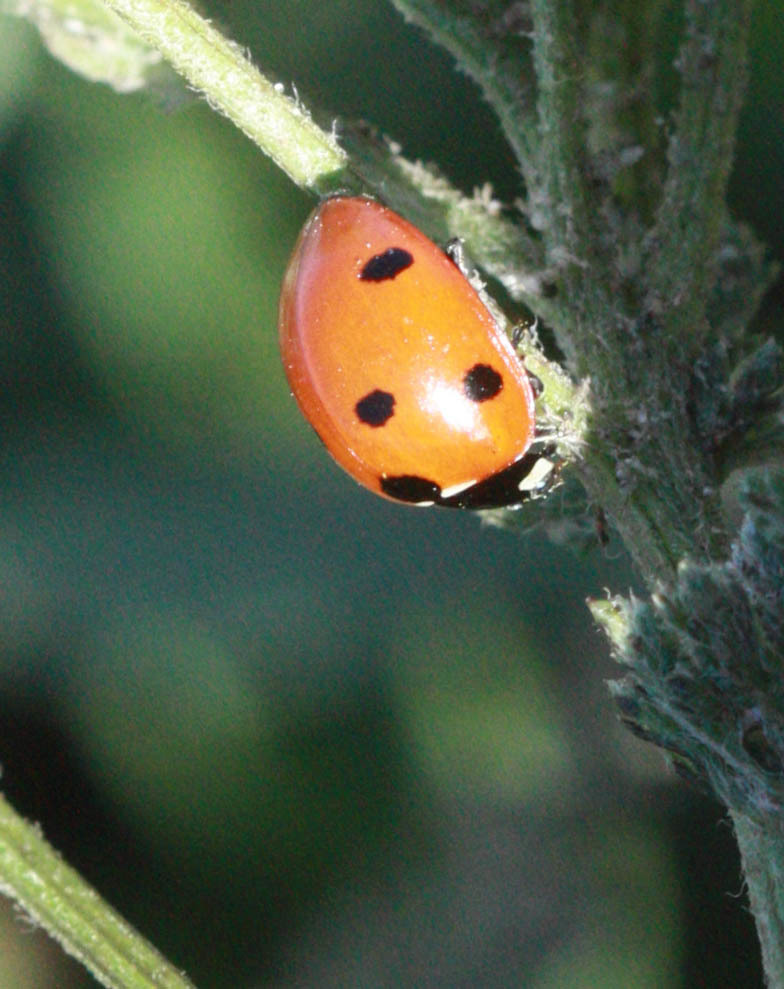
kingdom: Animalia
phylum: Arthropoda
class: Insecta
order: Coleoptera
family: Coccinellidae
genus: Coccinella
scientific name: Coccinella septempunctata
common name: Sevenspotted lady beetle
